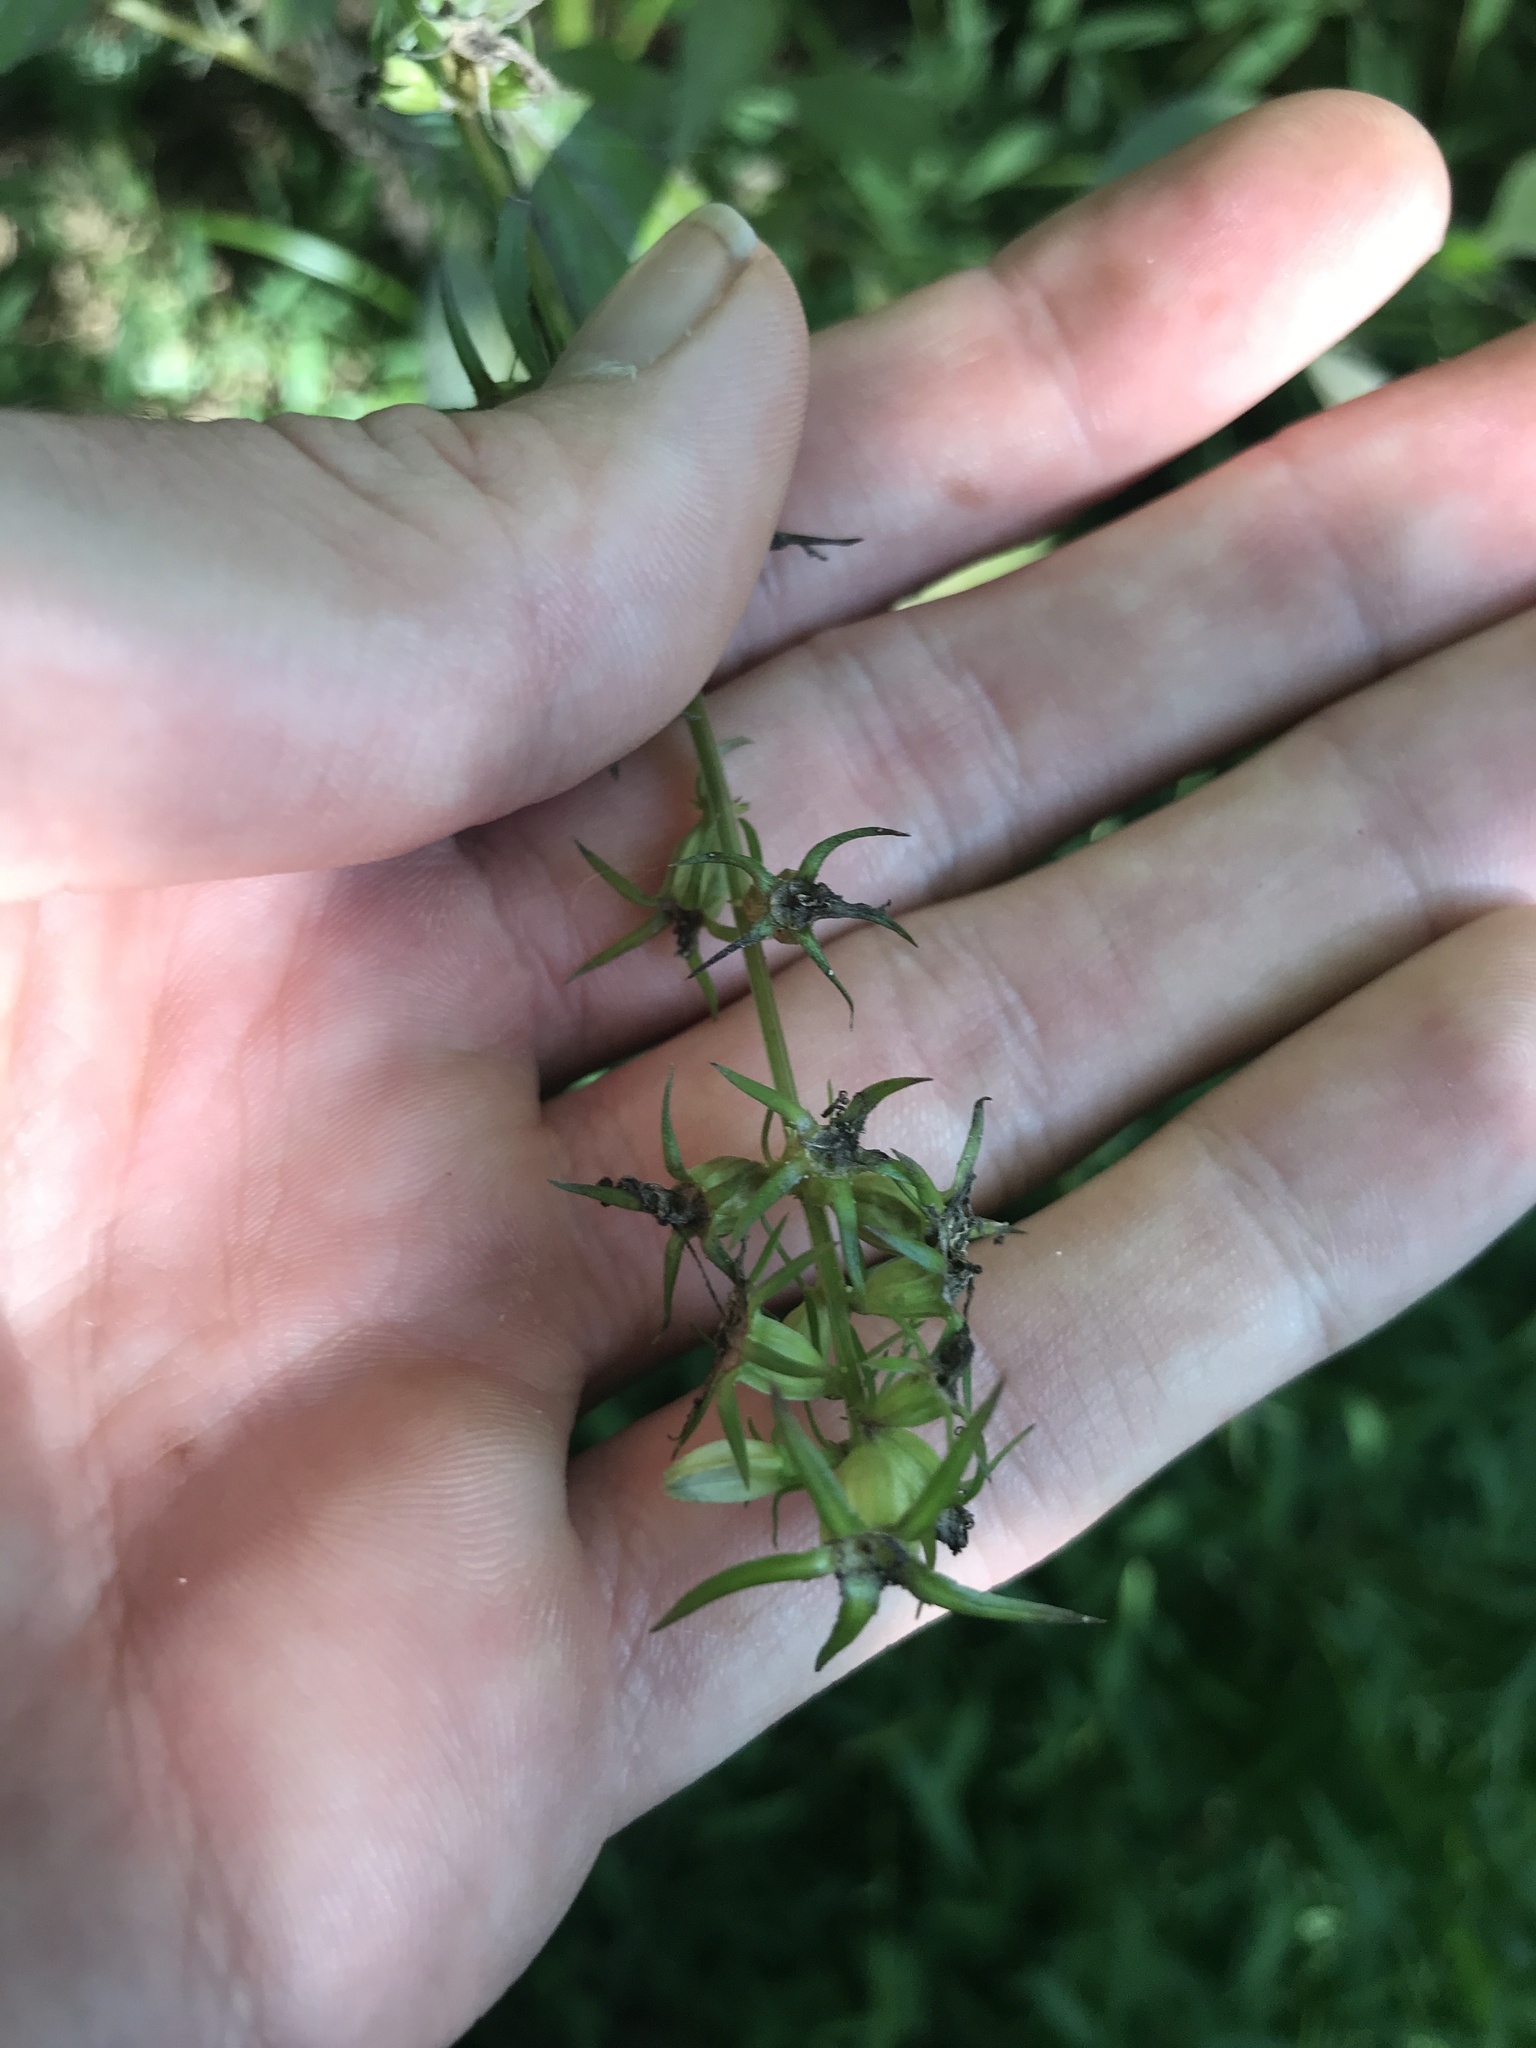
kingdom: Plantae
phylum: Tracheophyta
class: Magnoliopsida
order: Asterales
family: Campanulaceae
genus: Campanulastrum
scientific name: Campanulastrum americanum
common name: American bellflower
